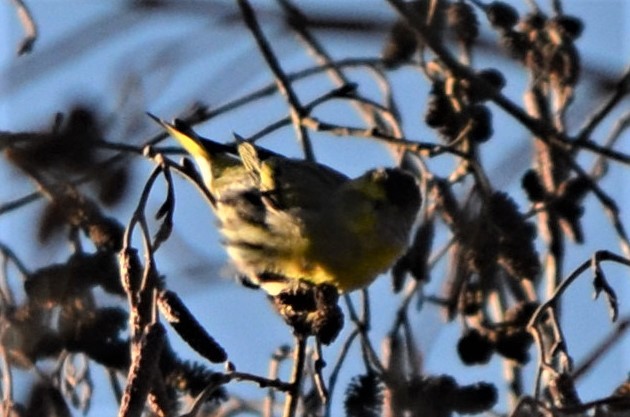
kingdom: Animalia
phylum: Chordata
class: Aves
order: Passeriformes
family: Fringillidae
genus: Spinus
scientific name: Spinus spinus
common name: Eurasian siskin
